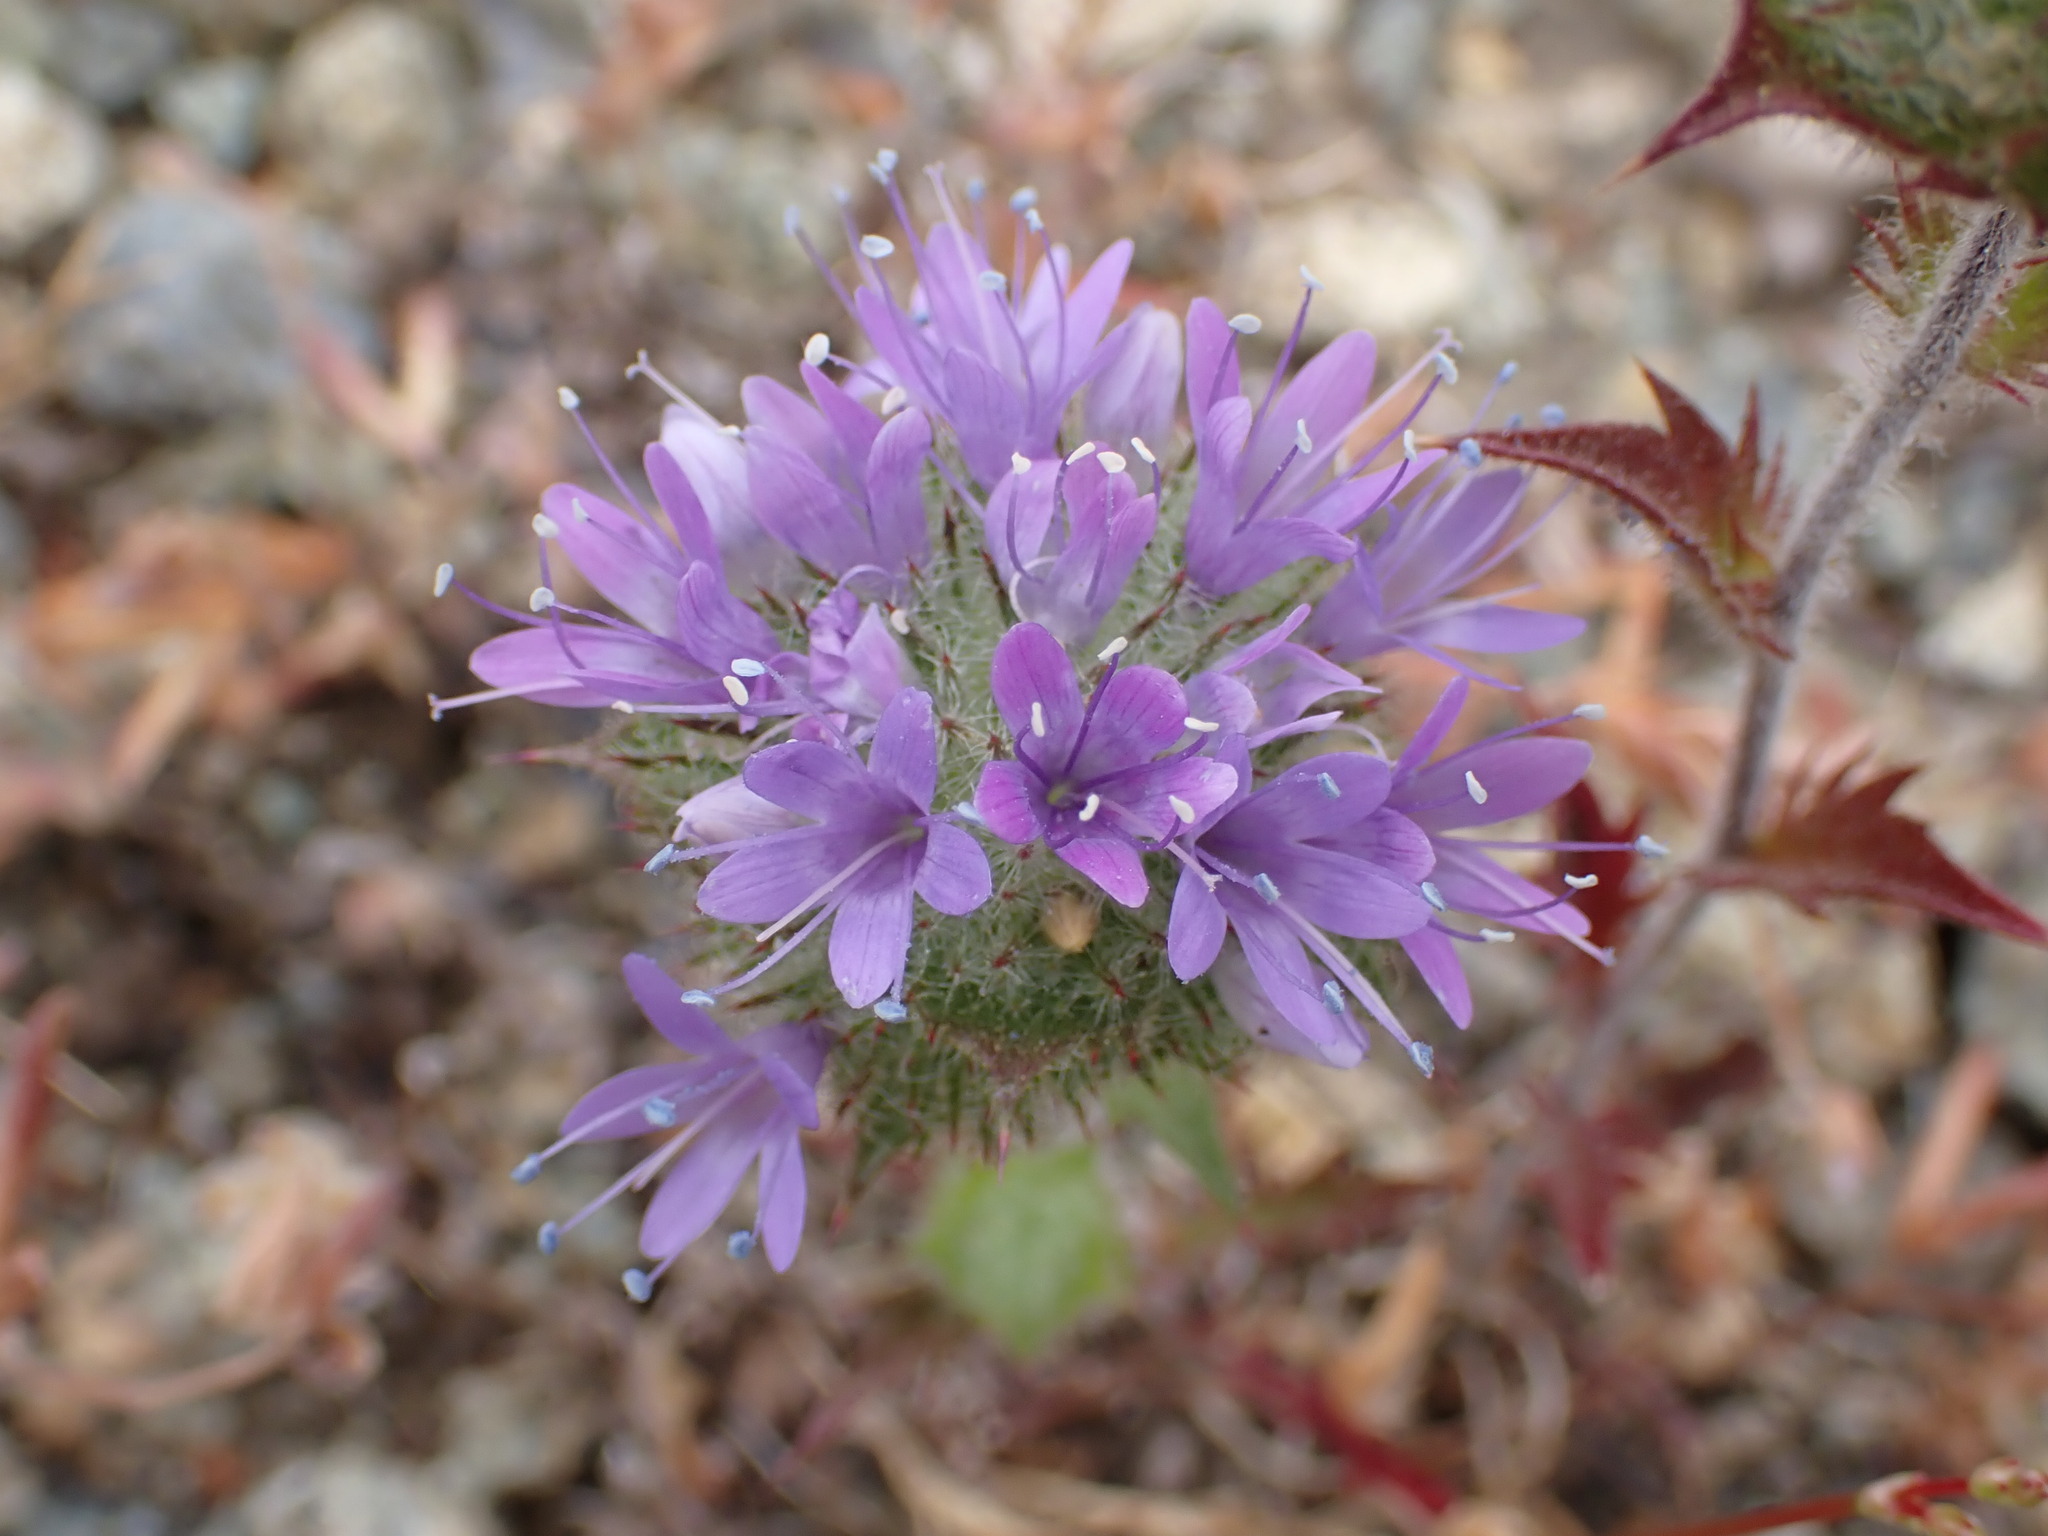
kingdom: Plantae
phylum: Tracheophyta
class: Magnoliopsida
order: Ericales
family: Polemoniaceae
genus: Navarretia
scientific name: Navarretia heterodoxa
